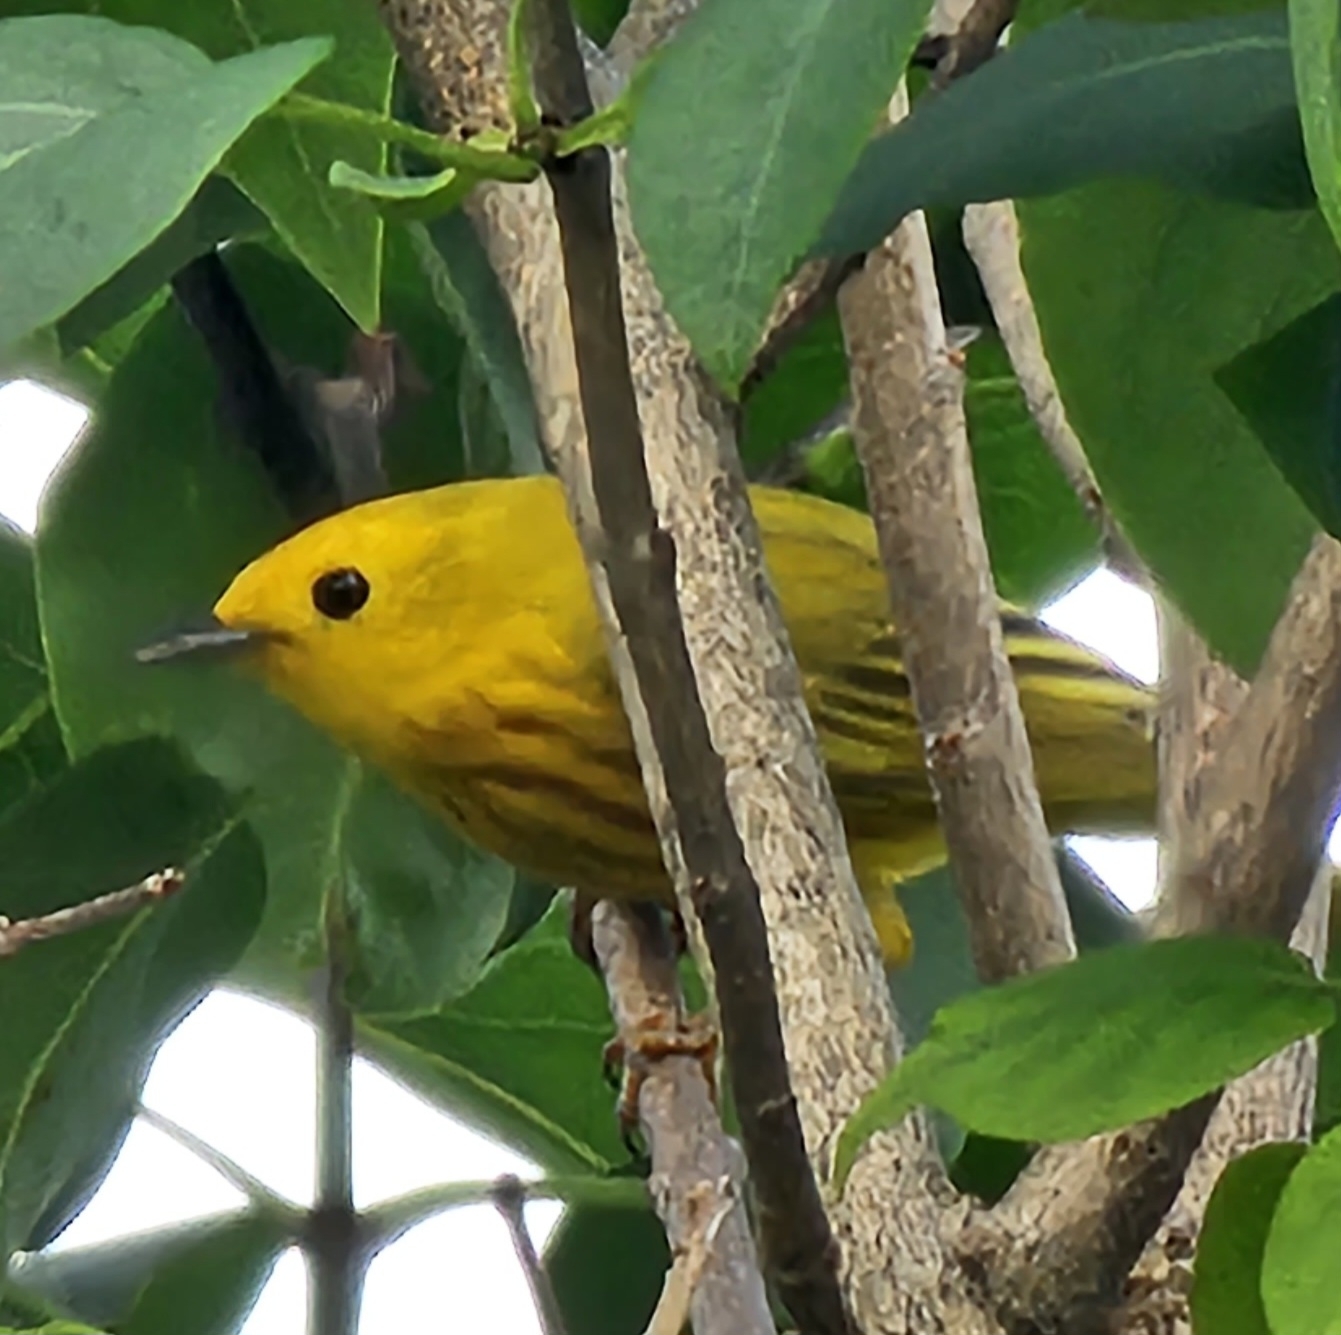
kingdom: Animalia
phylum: Chordata
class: Aves
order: Passeriformes
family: Parulidae
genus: Setophaga
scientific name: Setophaga petechia
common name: Yellow warbler
